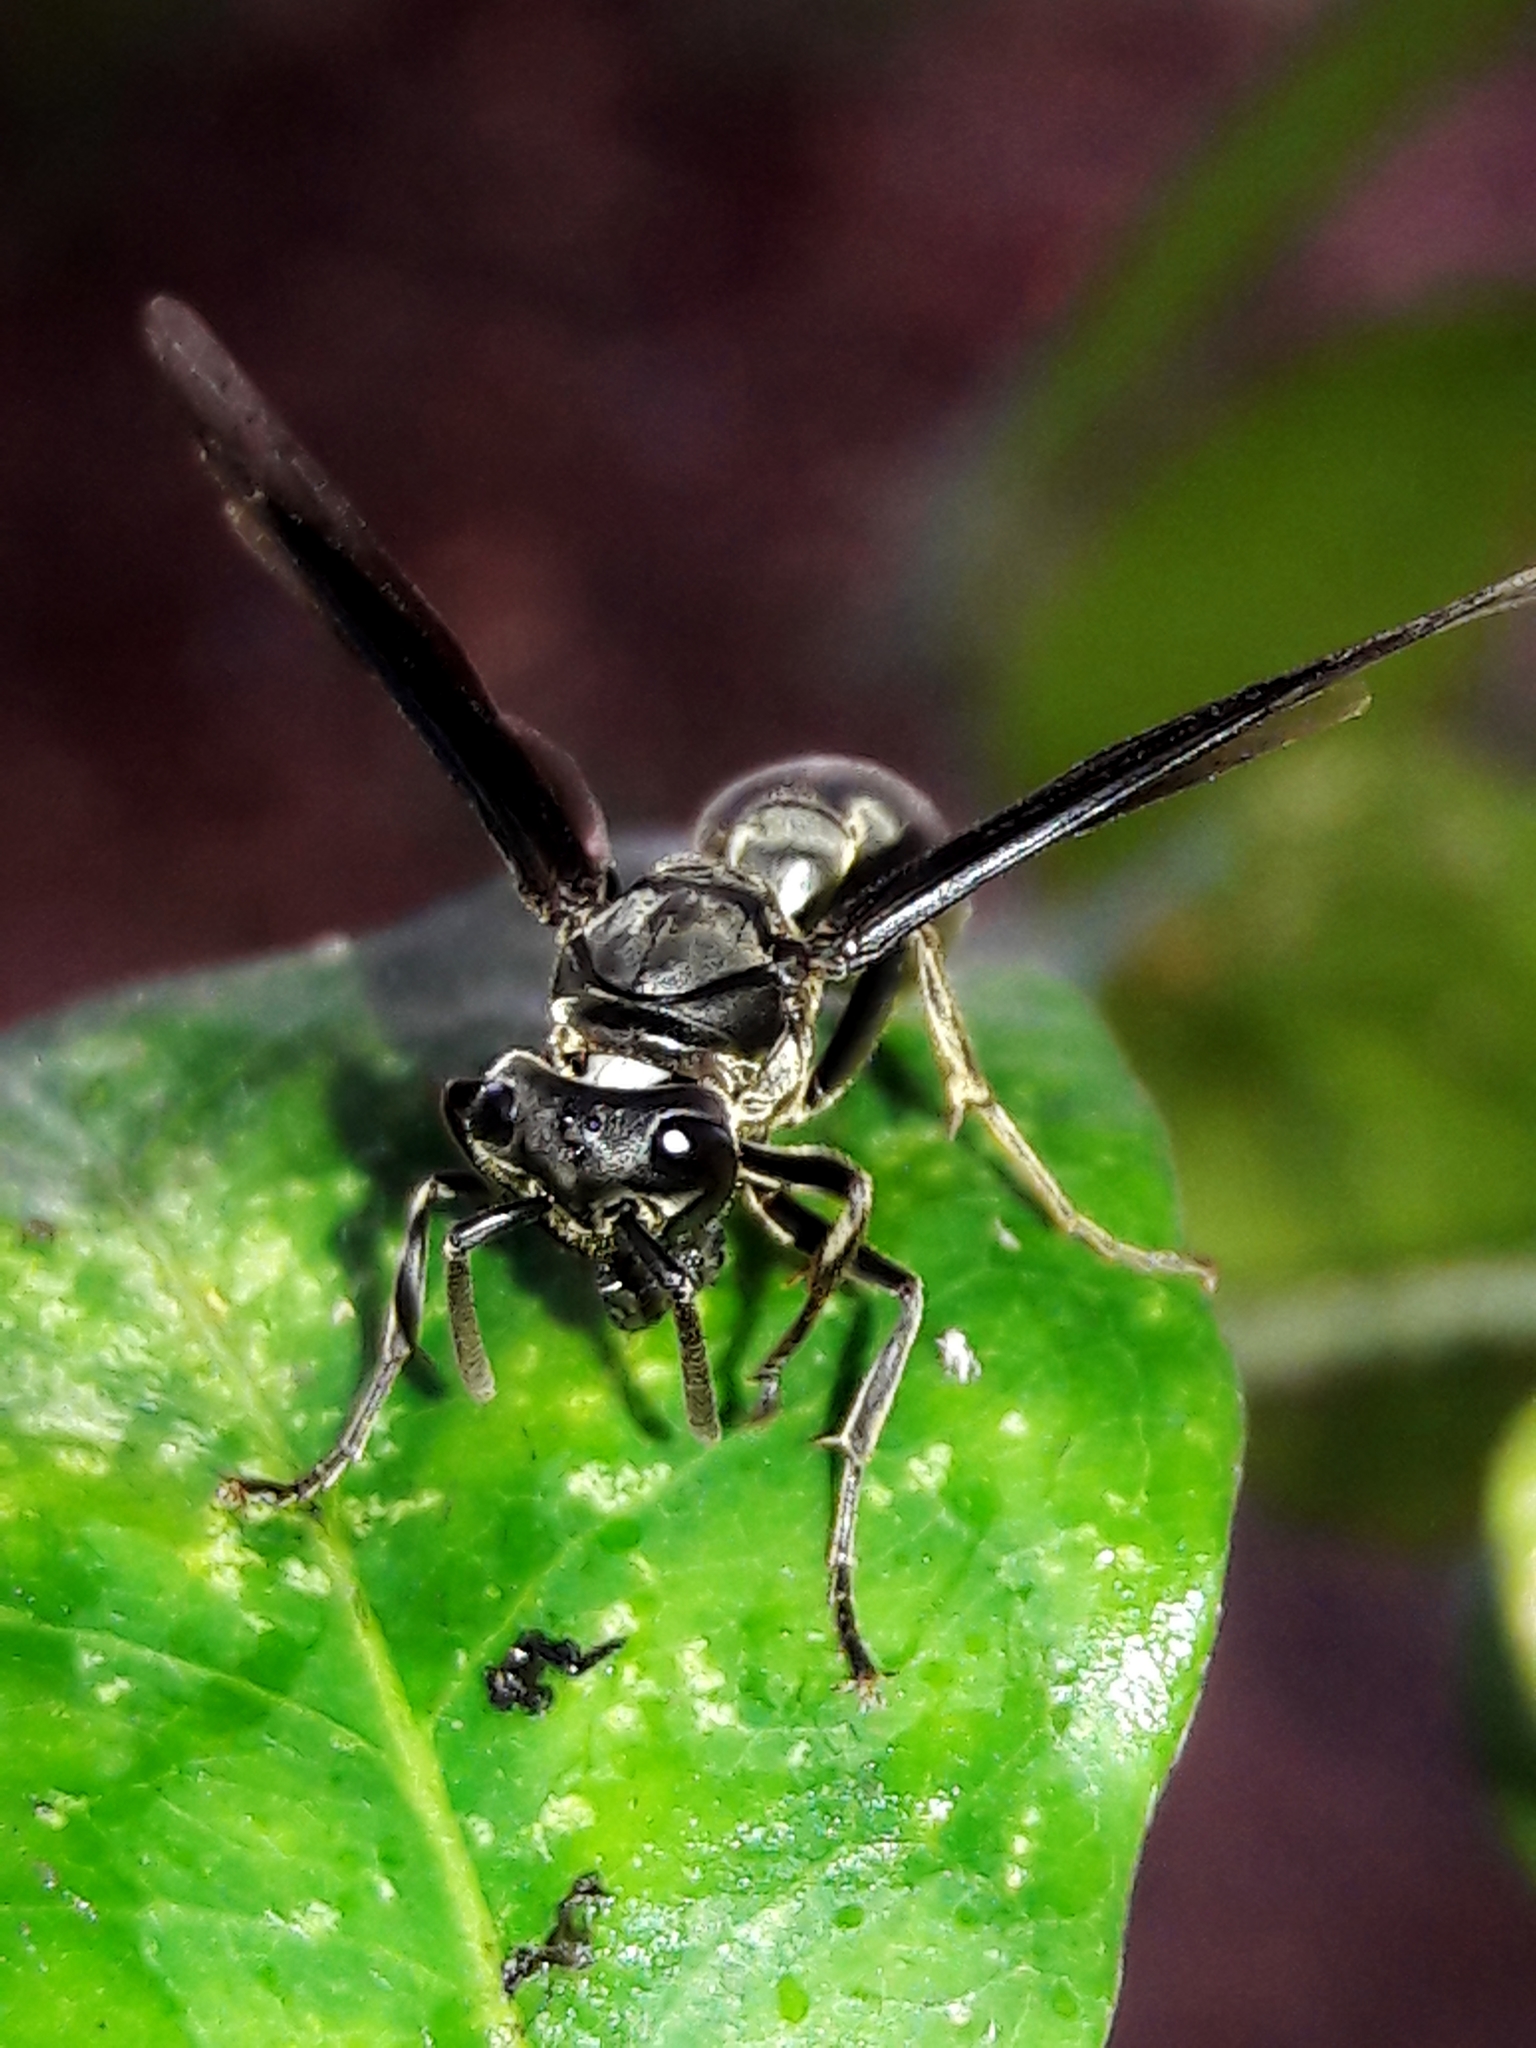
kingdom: Animalia
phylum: Arthropoda
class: Insecta
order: Hymenoptera
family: Eumenidae
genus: Polybia
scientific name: Polybia ignobilis
